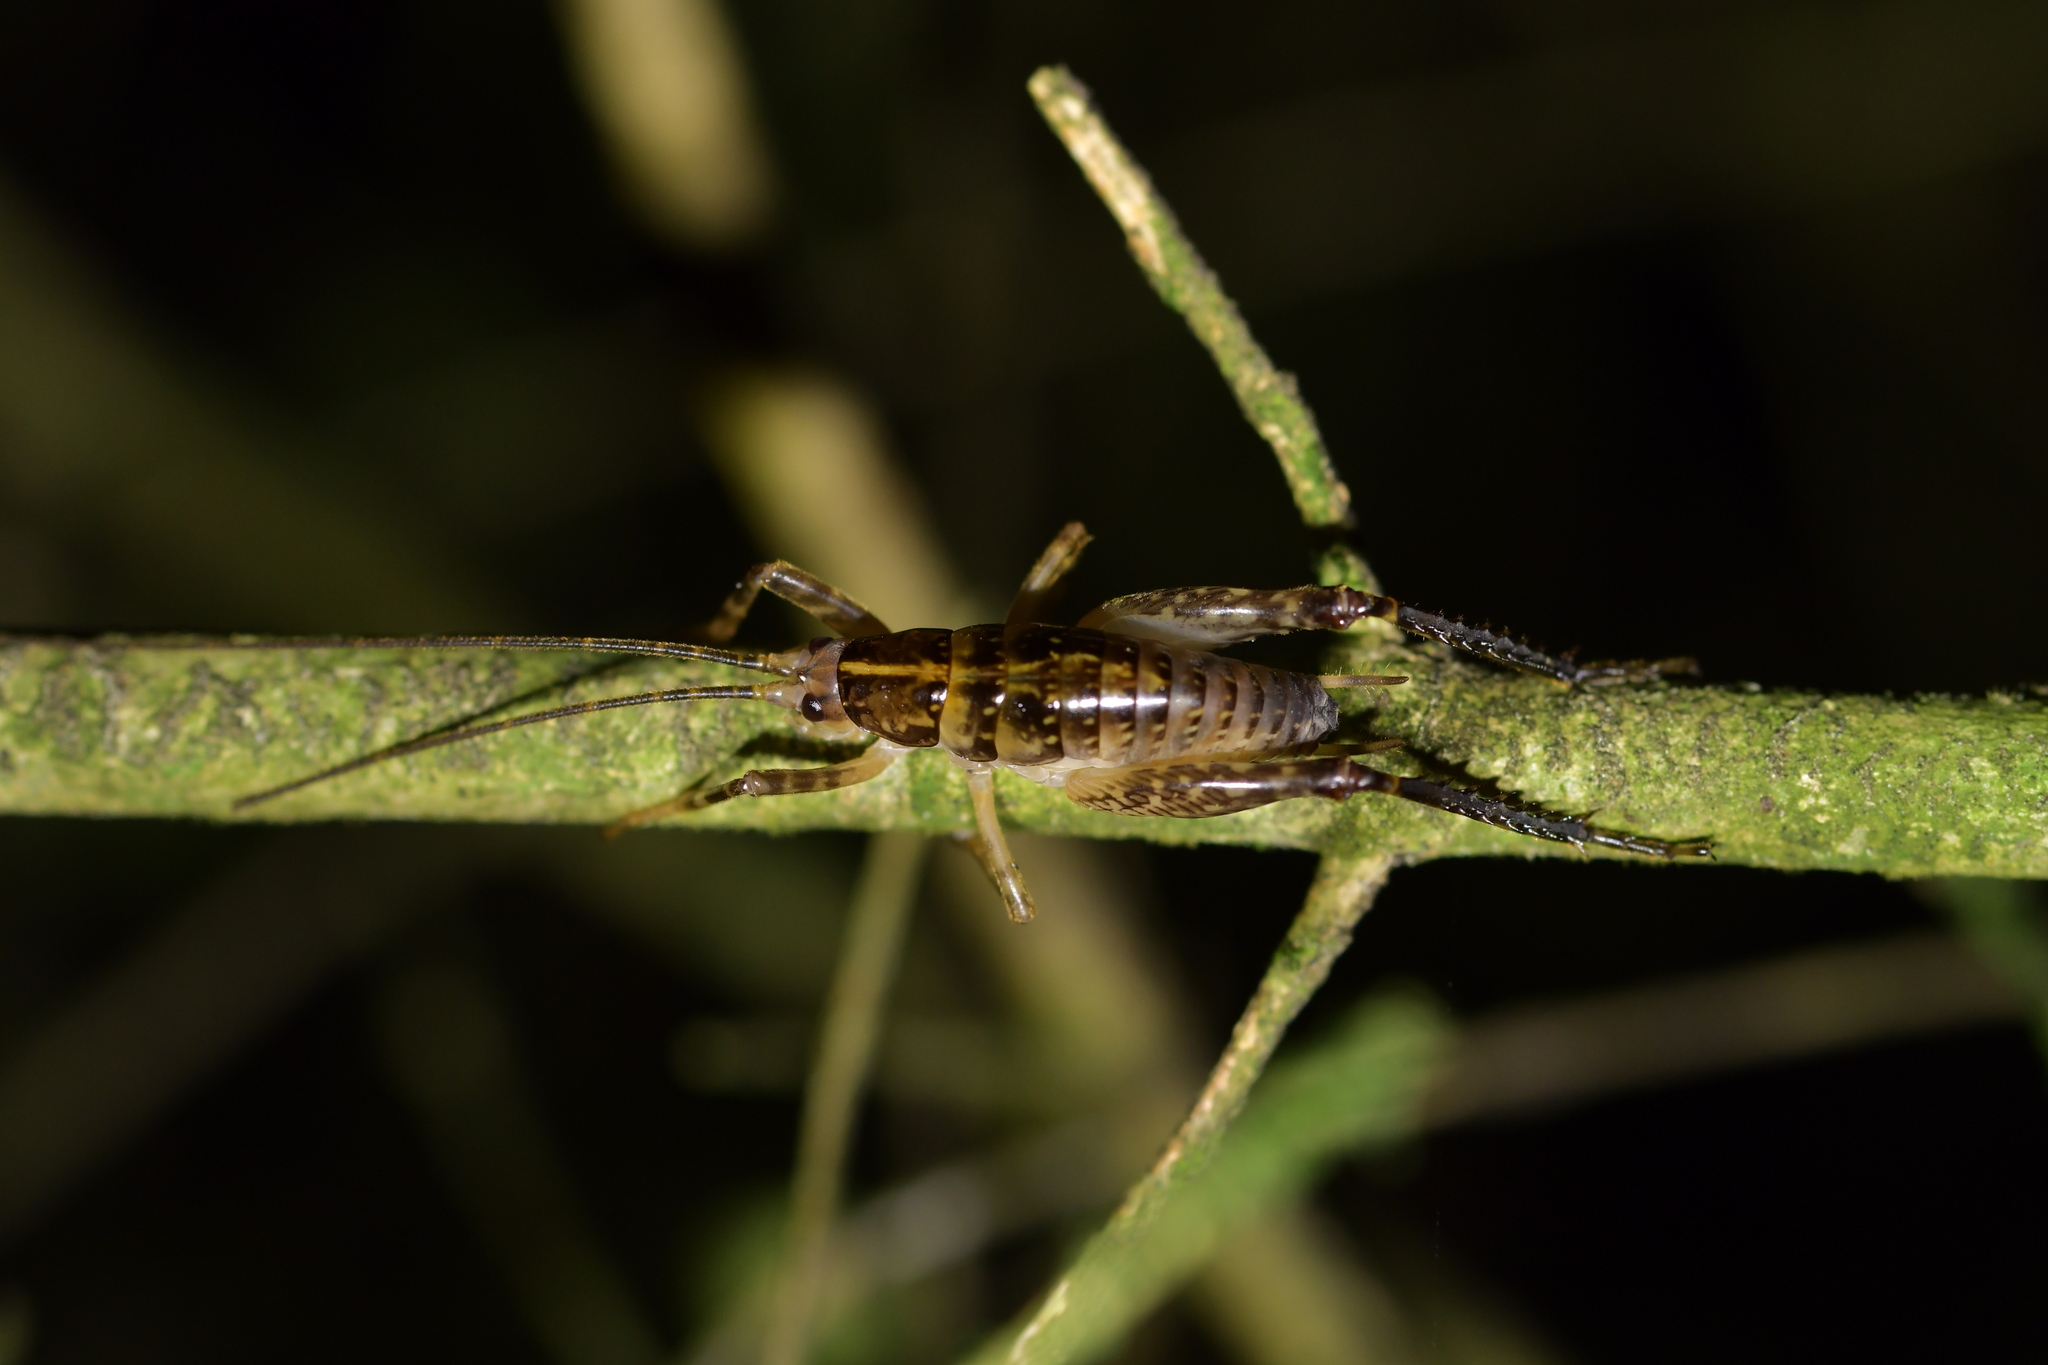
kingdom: Animalia
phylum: Arthropoda
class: Insecta
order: Orthoptera
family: Rhaphidophoridae
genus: Talitropsis
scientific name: Talitropsis sedilloti
